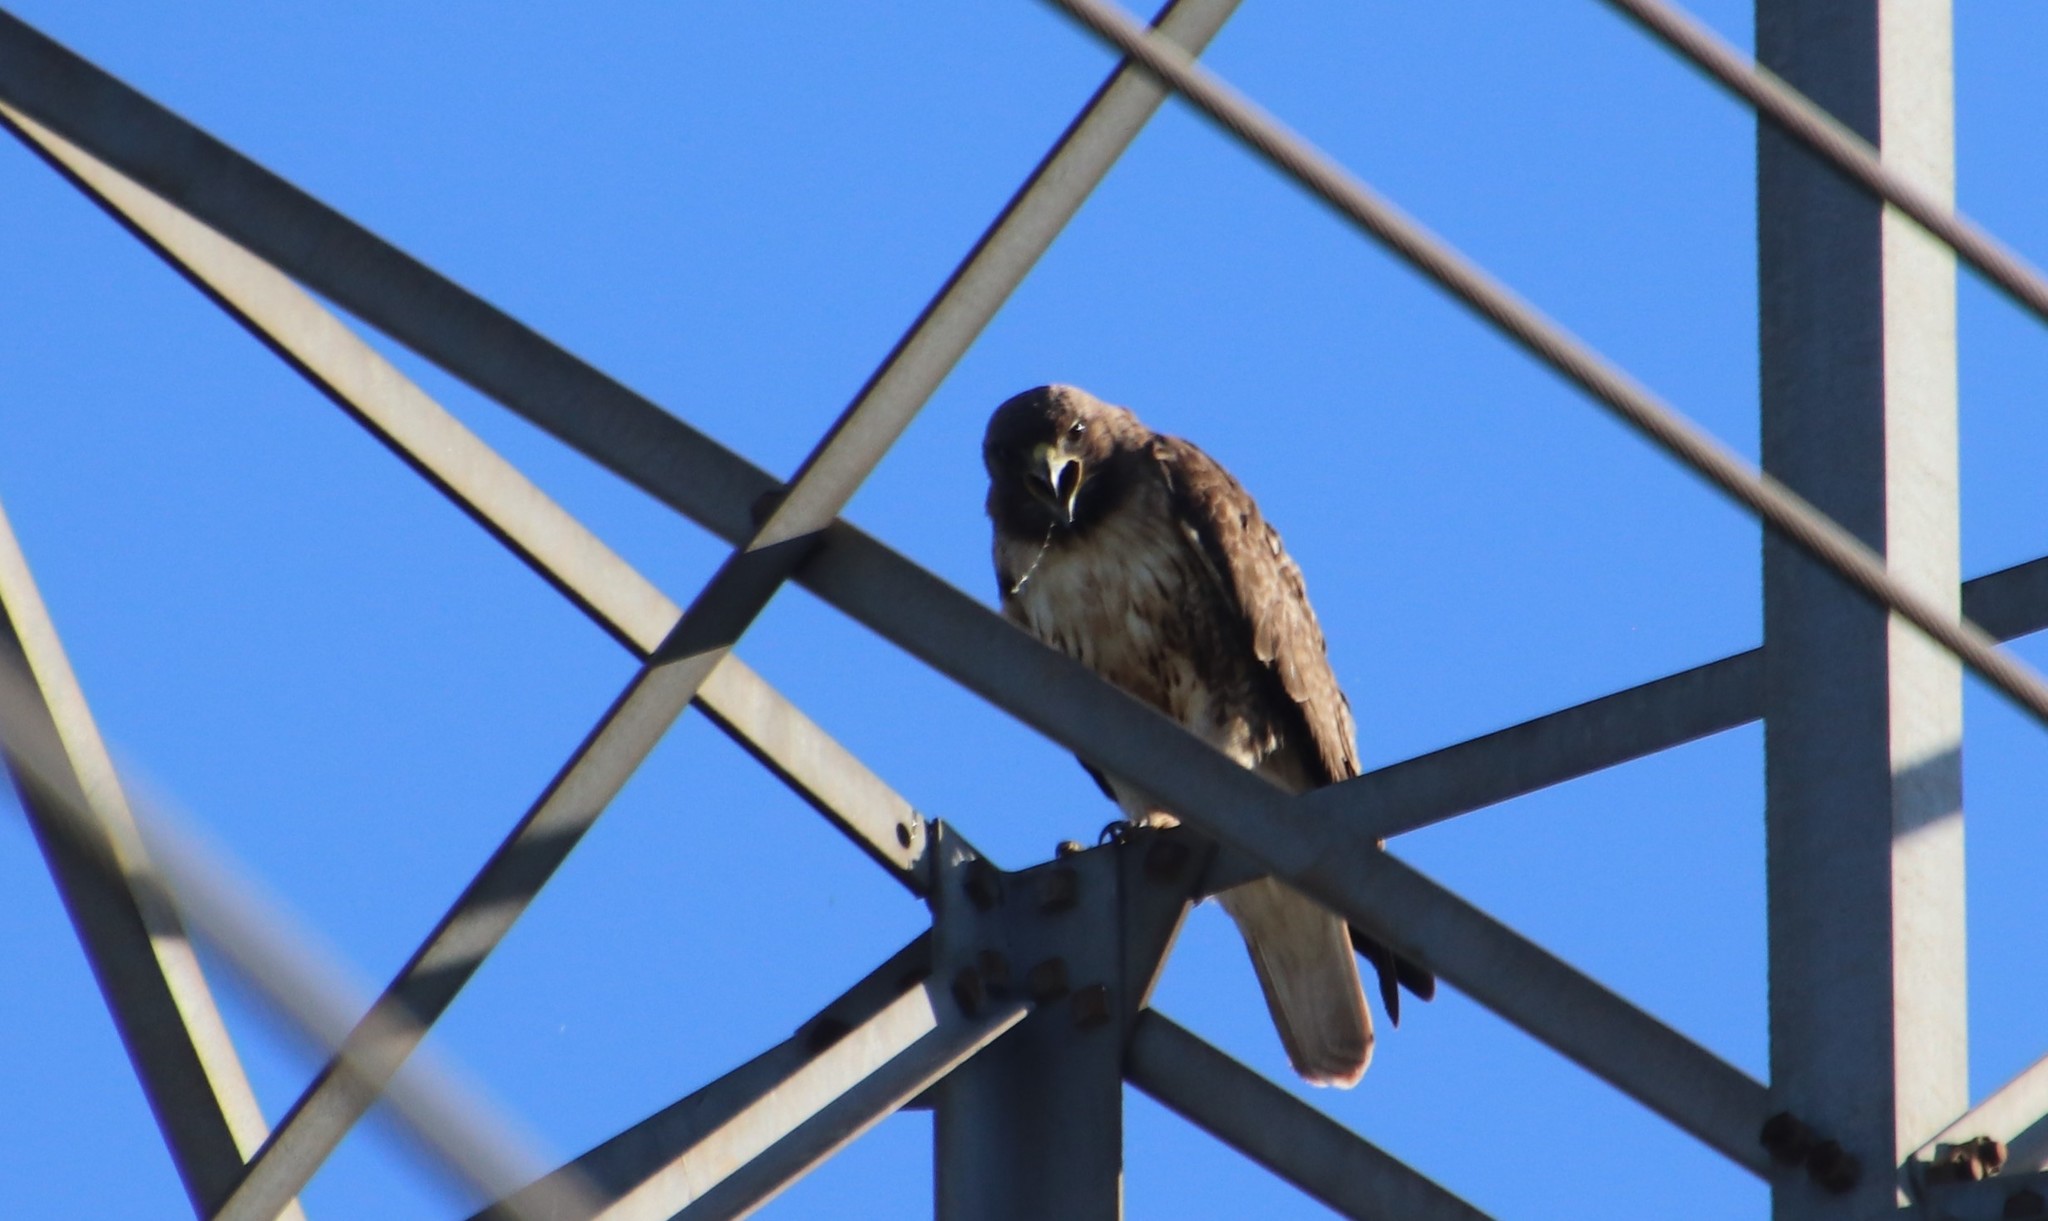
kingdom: Animalia
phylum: Chordata
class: Aves
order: Accipitriformes
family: Accipitridae
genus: Buteo
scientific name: Buteo jamaicensis
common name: Red-tailed hawk
